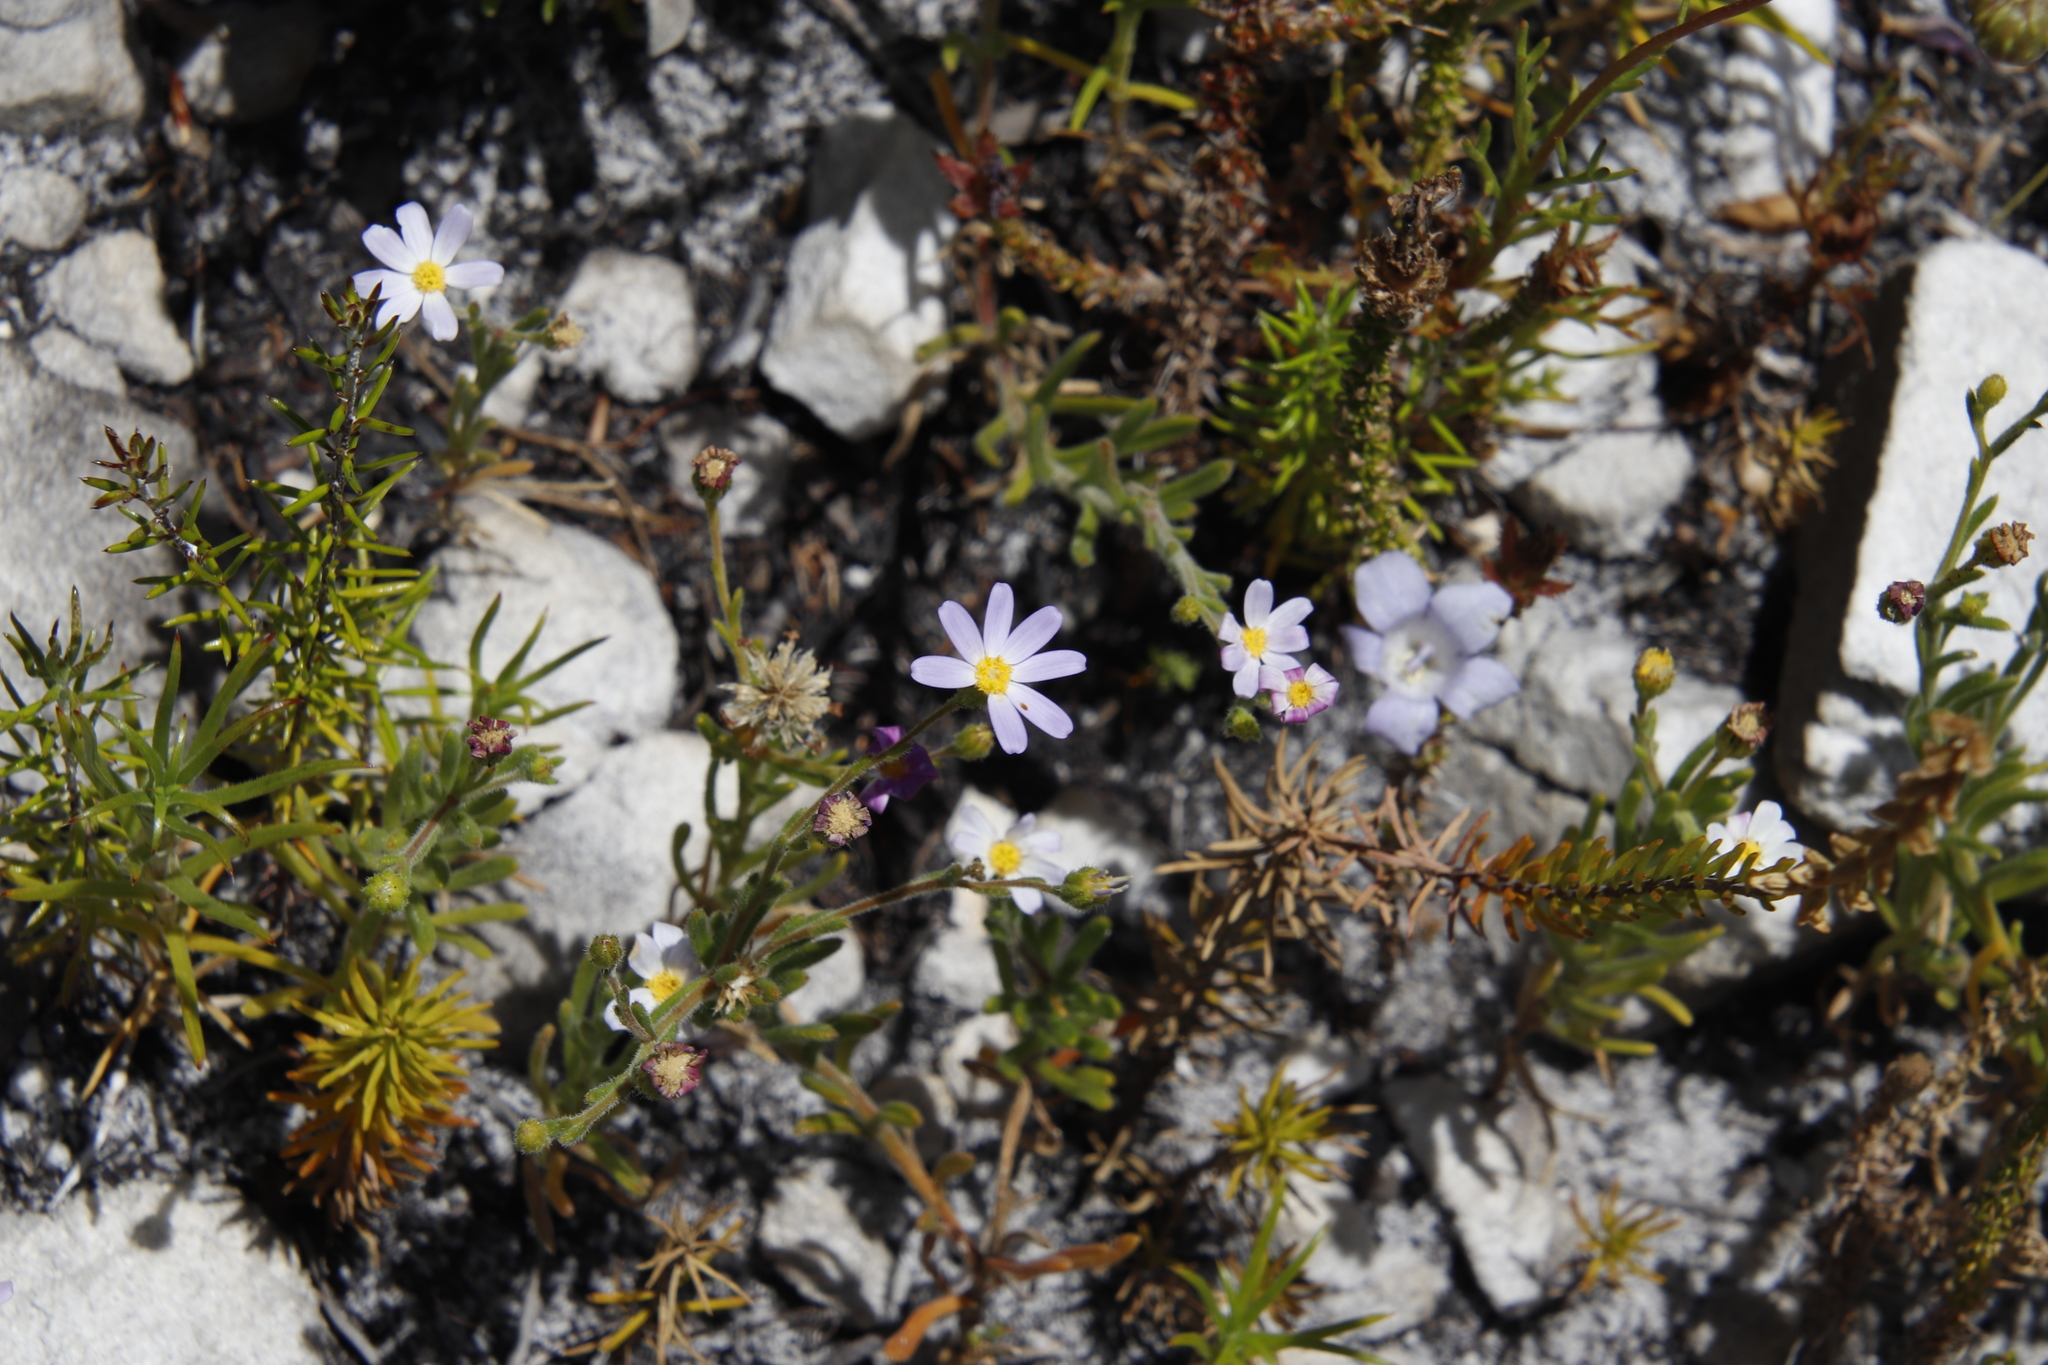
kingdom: Plantae
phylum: Tracheophyta
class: Magnoliopsida
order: Asterales
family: Asteraceae
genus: Zyrphelis
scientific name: Zyrphelis foliosa
